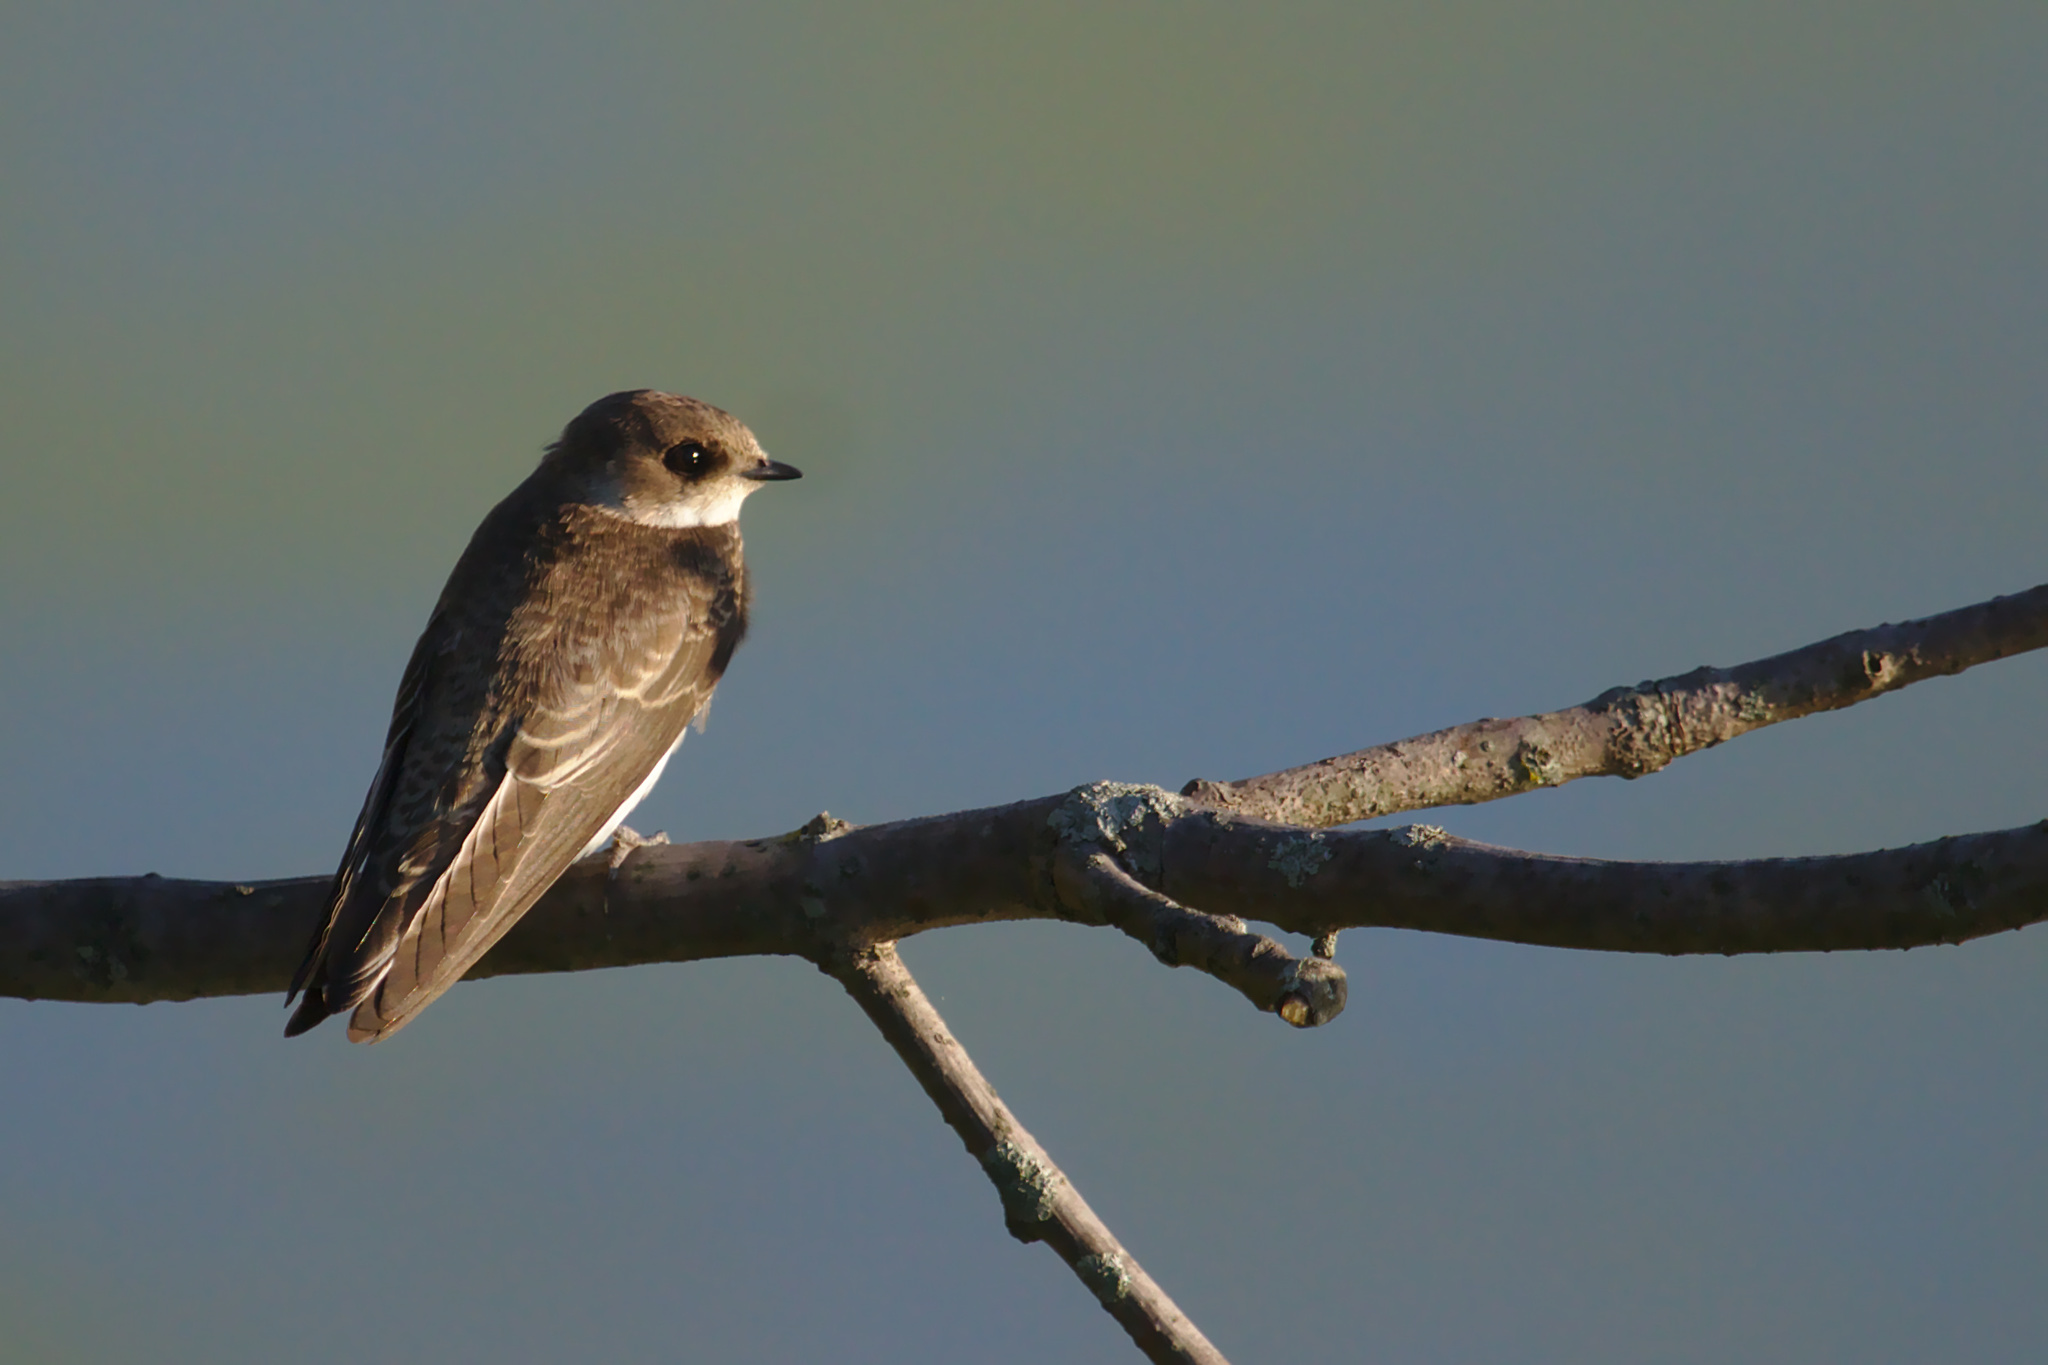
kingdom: Animalia
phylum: Chordata
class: Aves
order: Passeriformes
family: Hirundinidae
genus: Riparia
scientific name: Riparia riparia
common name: Sand martin
